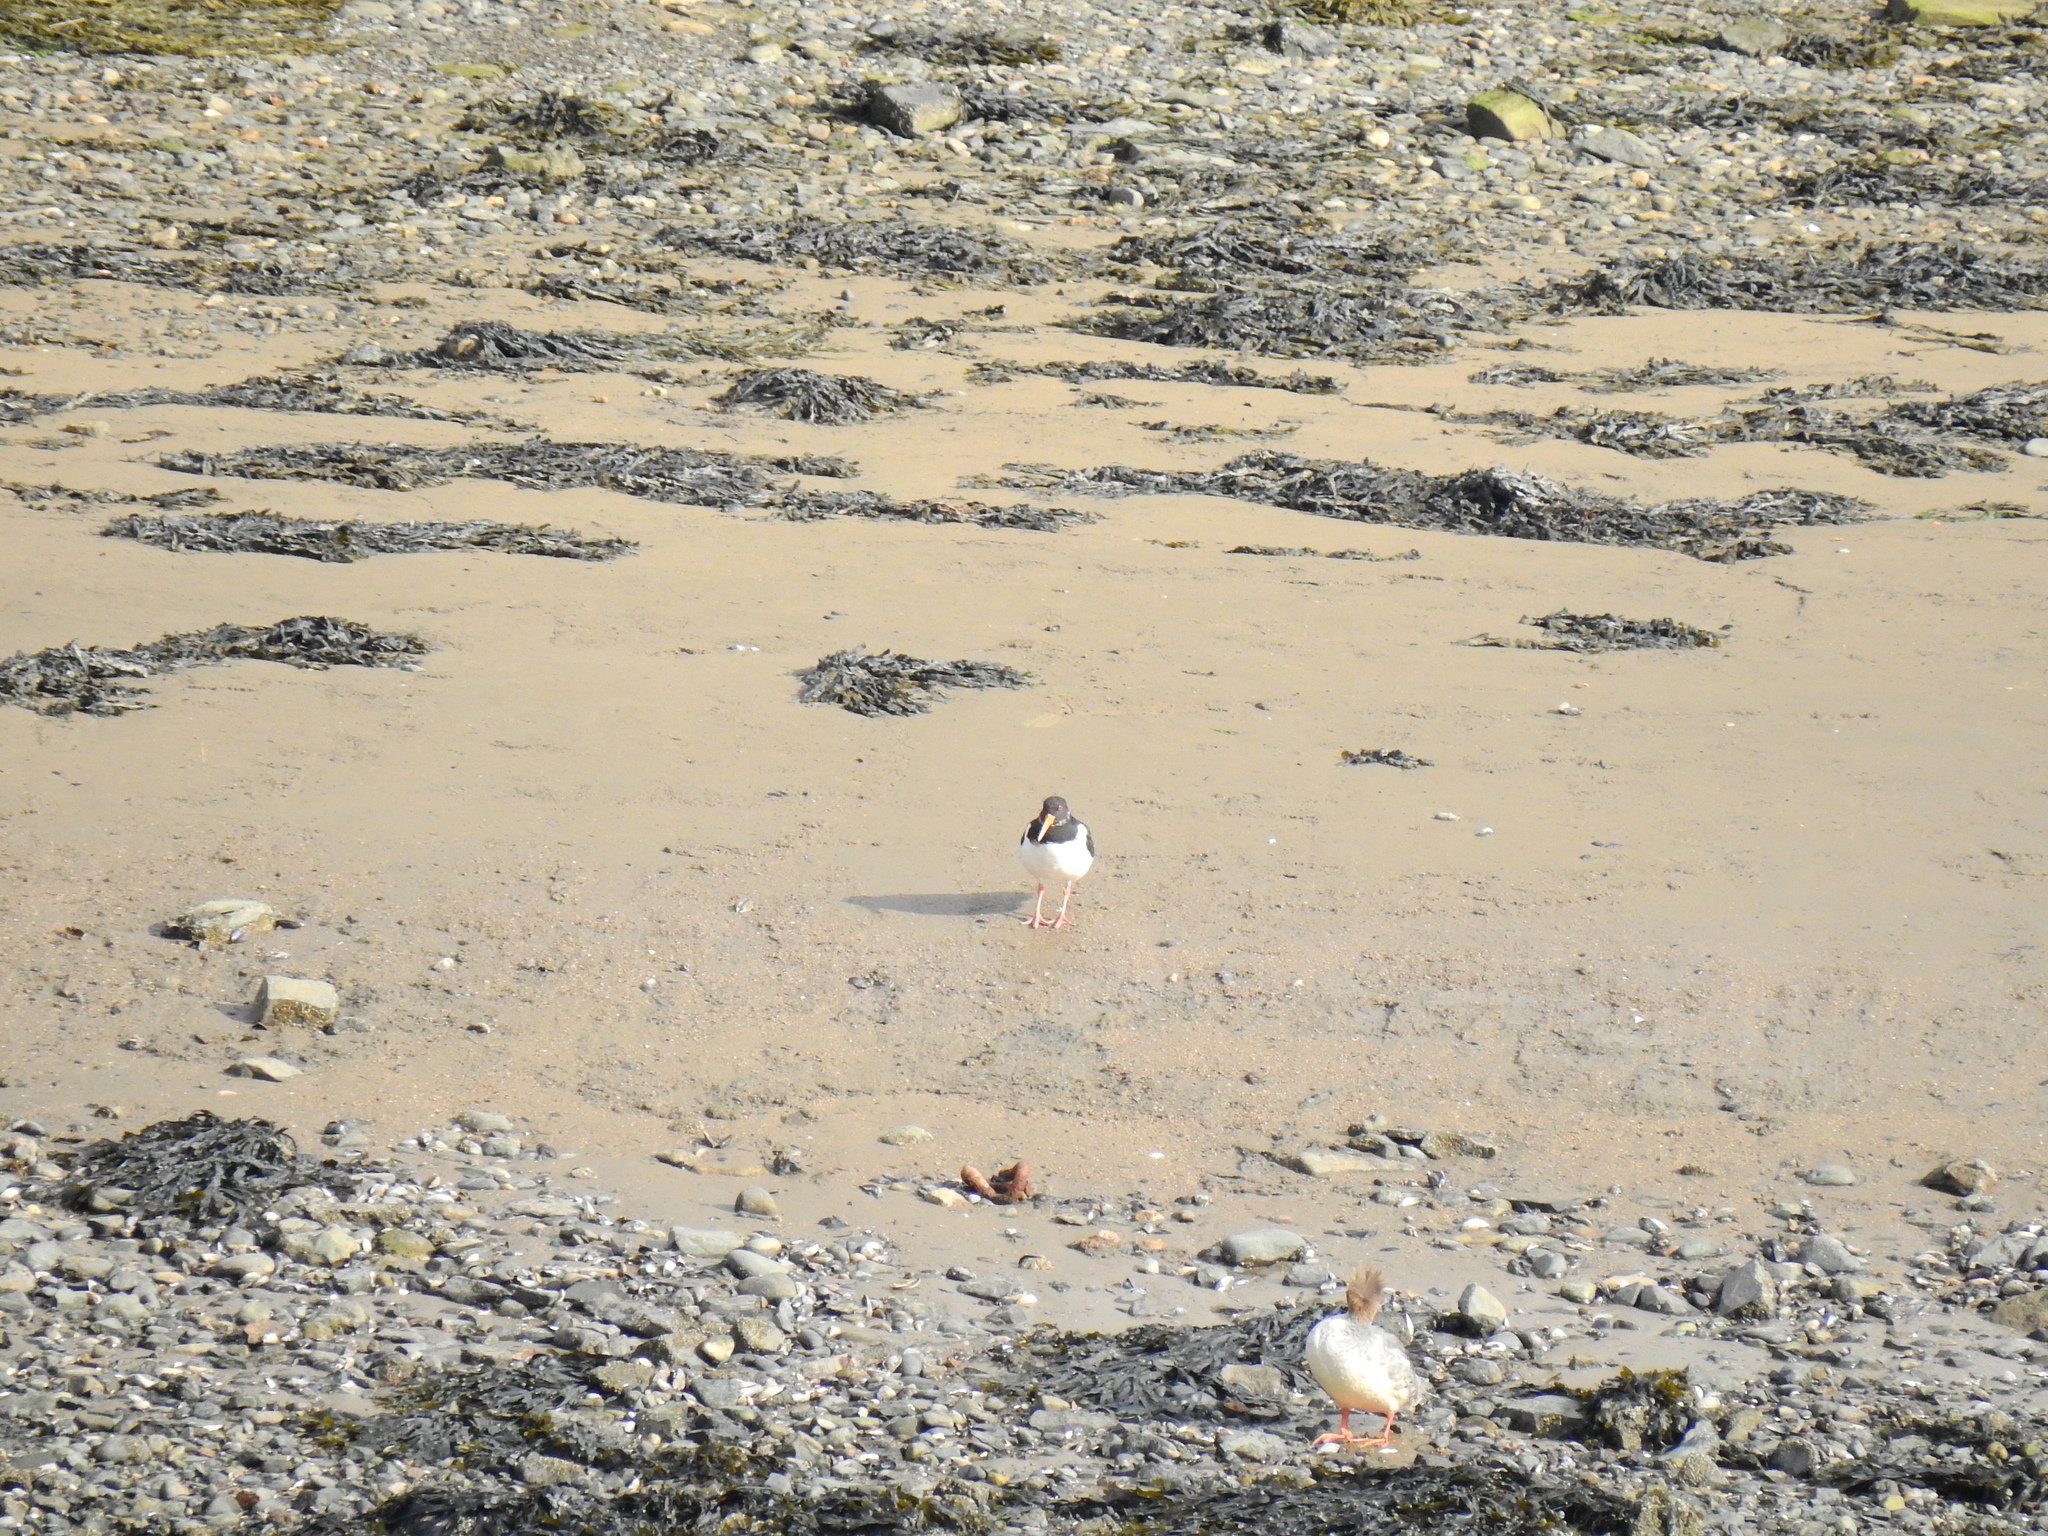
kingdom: Animalia
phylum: Chordata
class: Aves
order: Charadriiformes
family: Haematopodidae
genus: Haematopus
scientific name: Haematopus ostralegus
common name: Eurasian oystercatcher
